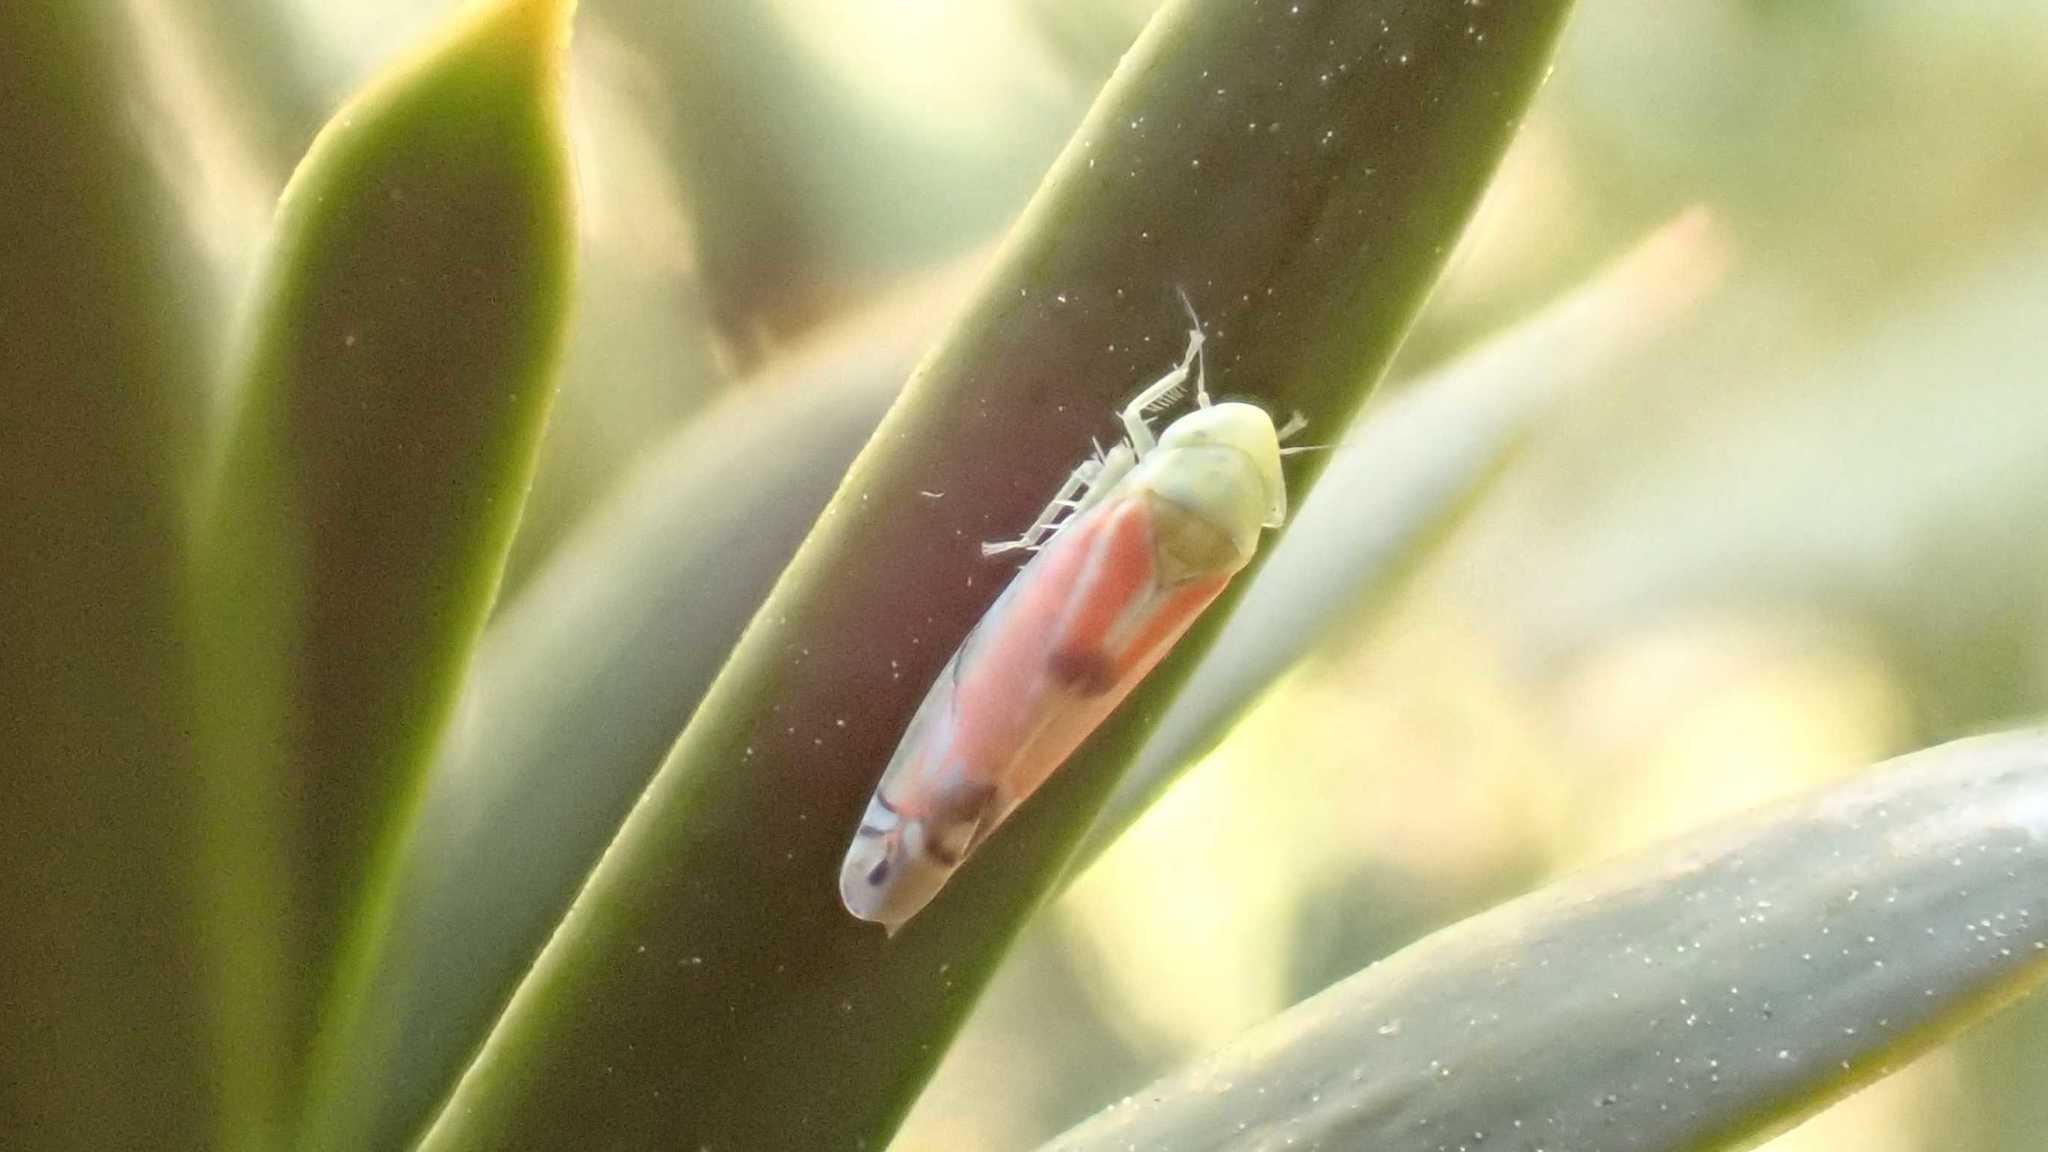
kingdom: Animalia
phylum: Arthropoda
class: Insecta
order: Hemiptera
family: Cicadellidae
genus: Zyginella
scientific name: Zyginella pulchra
